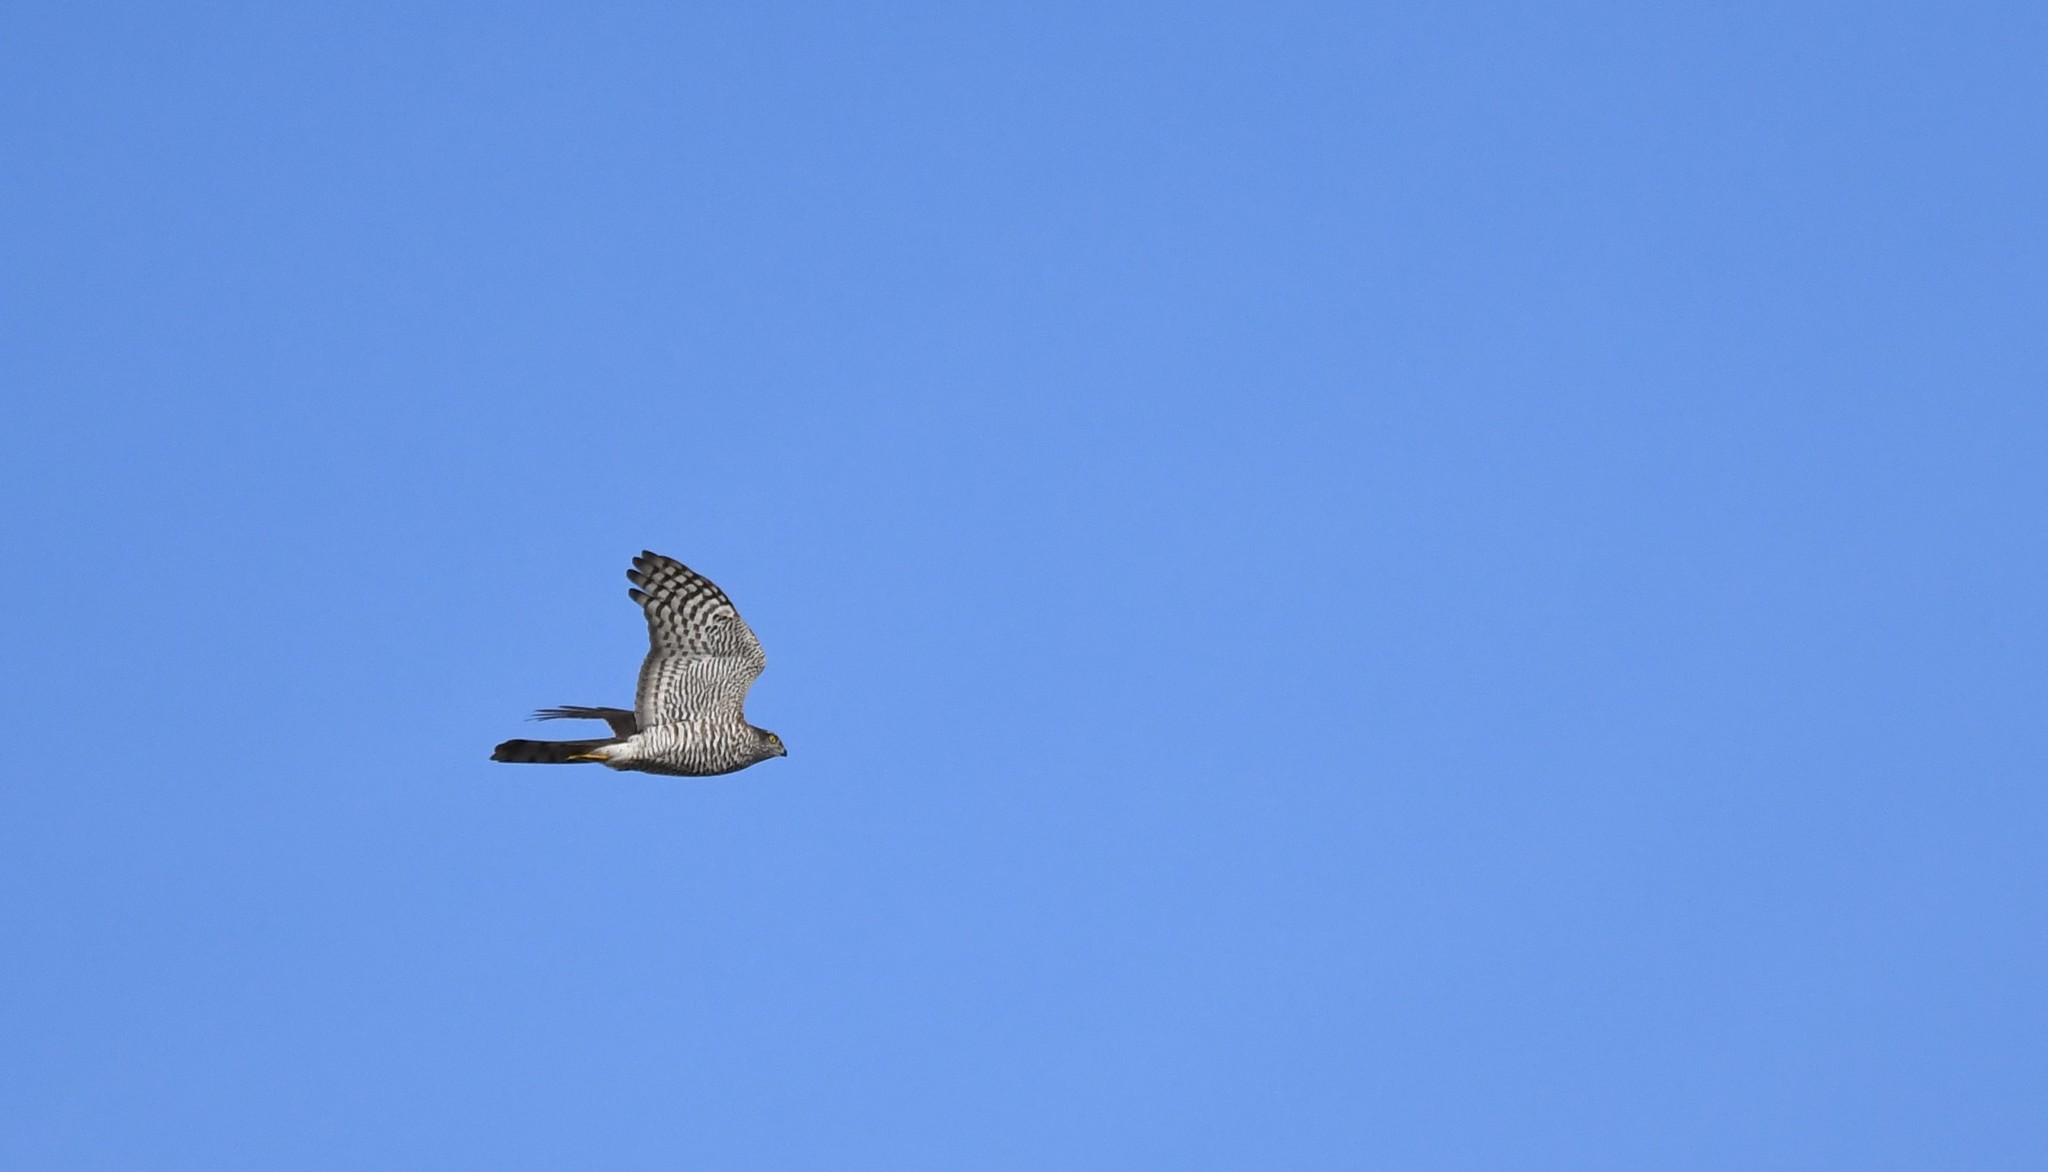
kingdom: Animalia
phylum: Chordata
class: Aves
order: Accipitriformes
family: Accipitridae
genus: Accipiter
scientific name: Accipiter nisus
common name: Eurasian sparrowhawk
